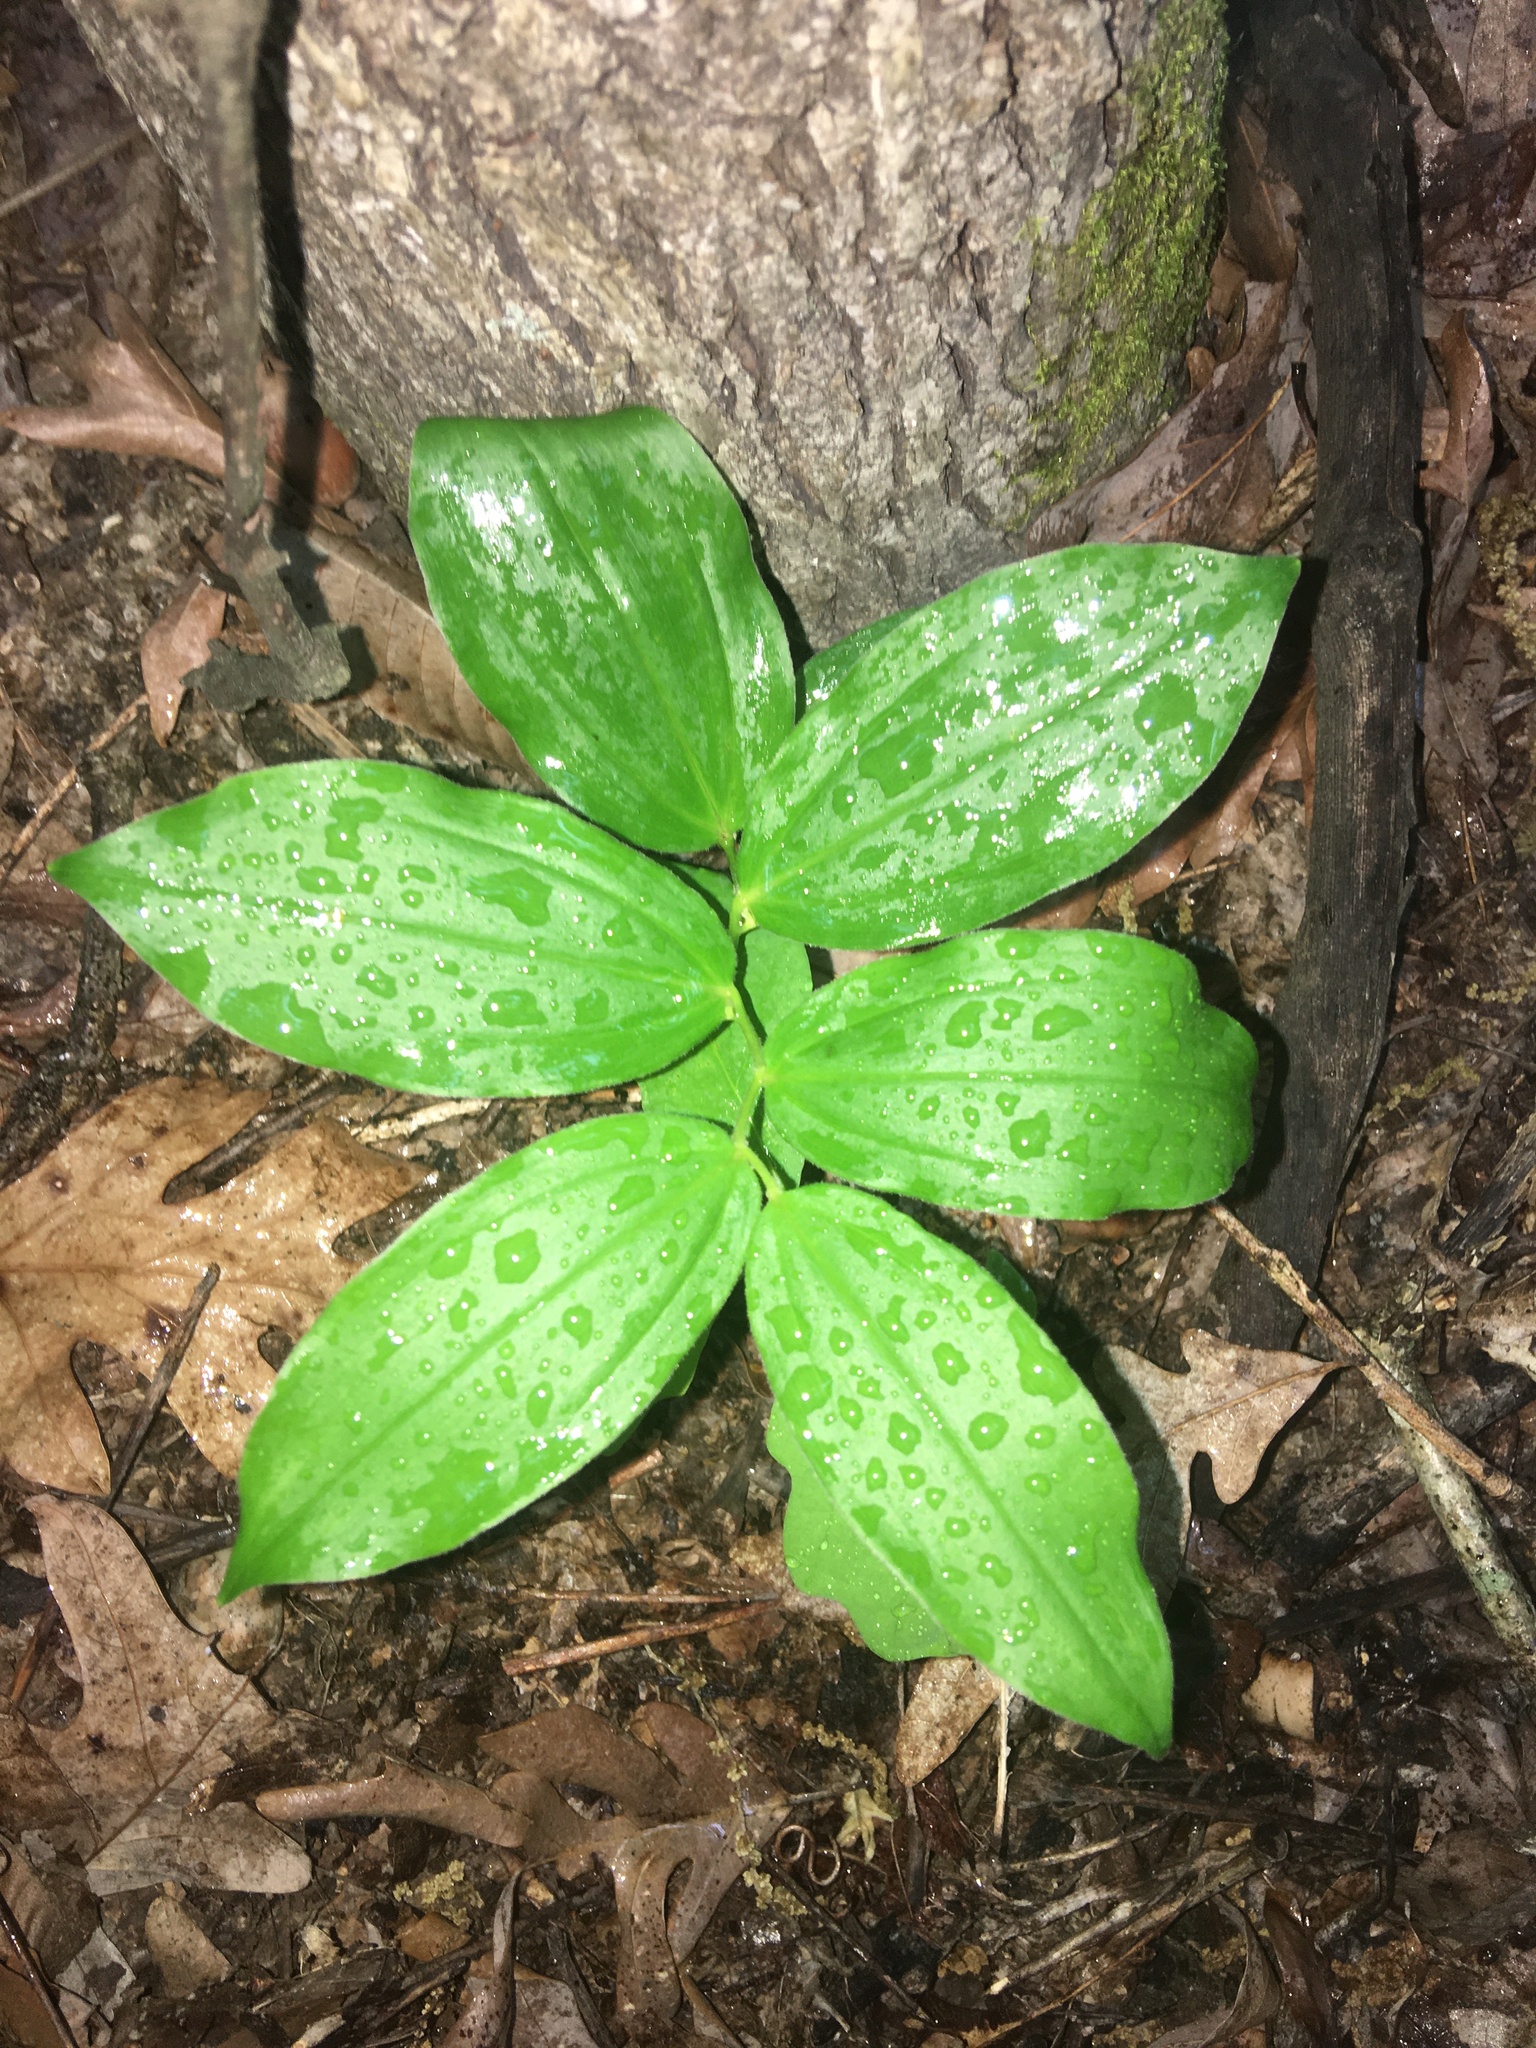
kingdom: Plantae
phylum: Tracheophyta
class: Liliopsida
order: Asparagales
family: Asparagaceae
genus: Maianthemum
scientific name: Maianthemum racemosum
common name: False spikenard
